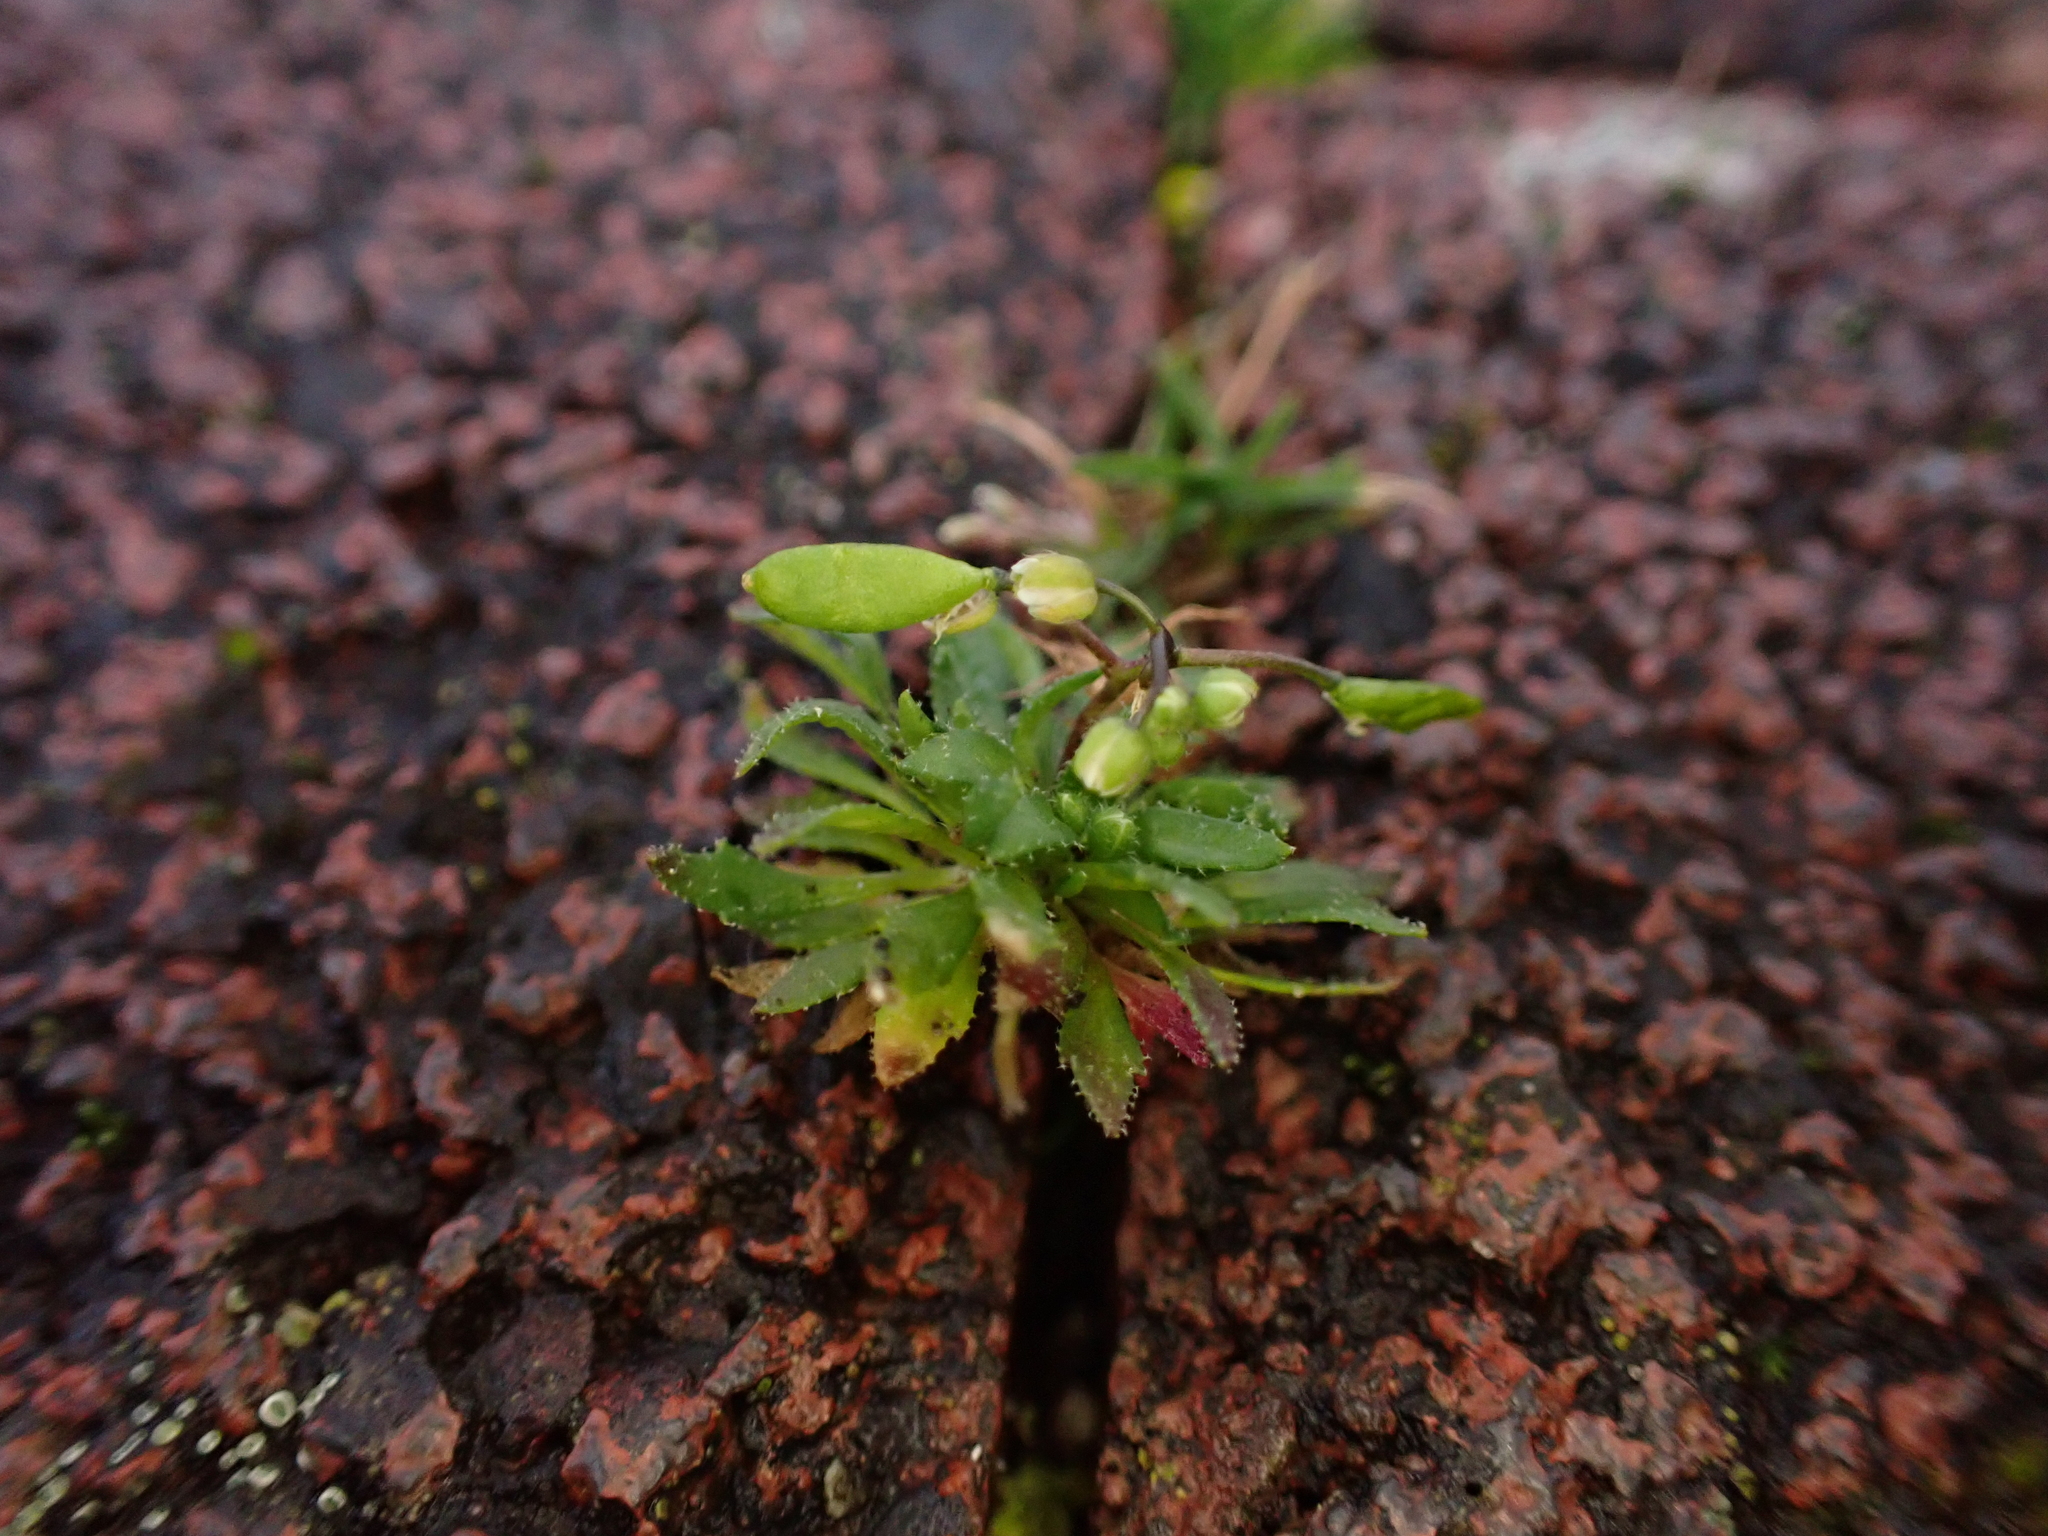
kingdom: Plantae
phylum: Tracheophyta
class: Magnoliopsida
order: Brassicales
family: Brassicaceae
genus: Draba
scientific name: Draba verna
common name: Spring draba
